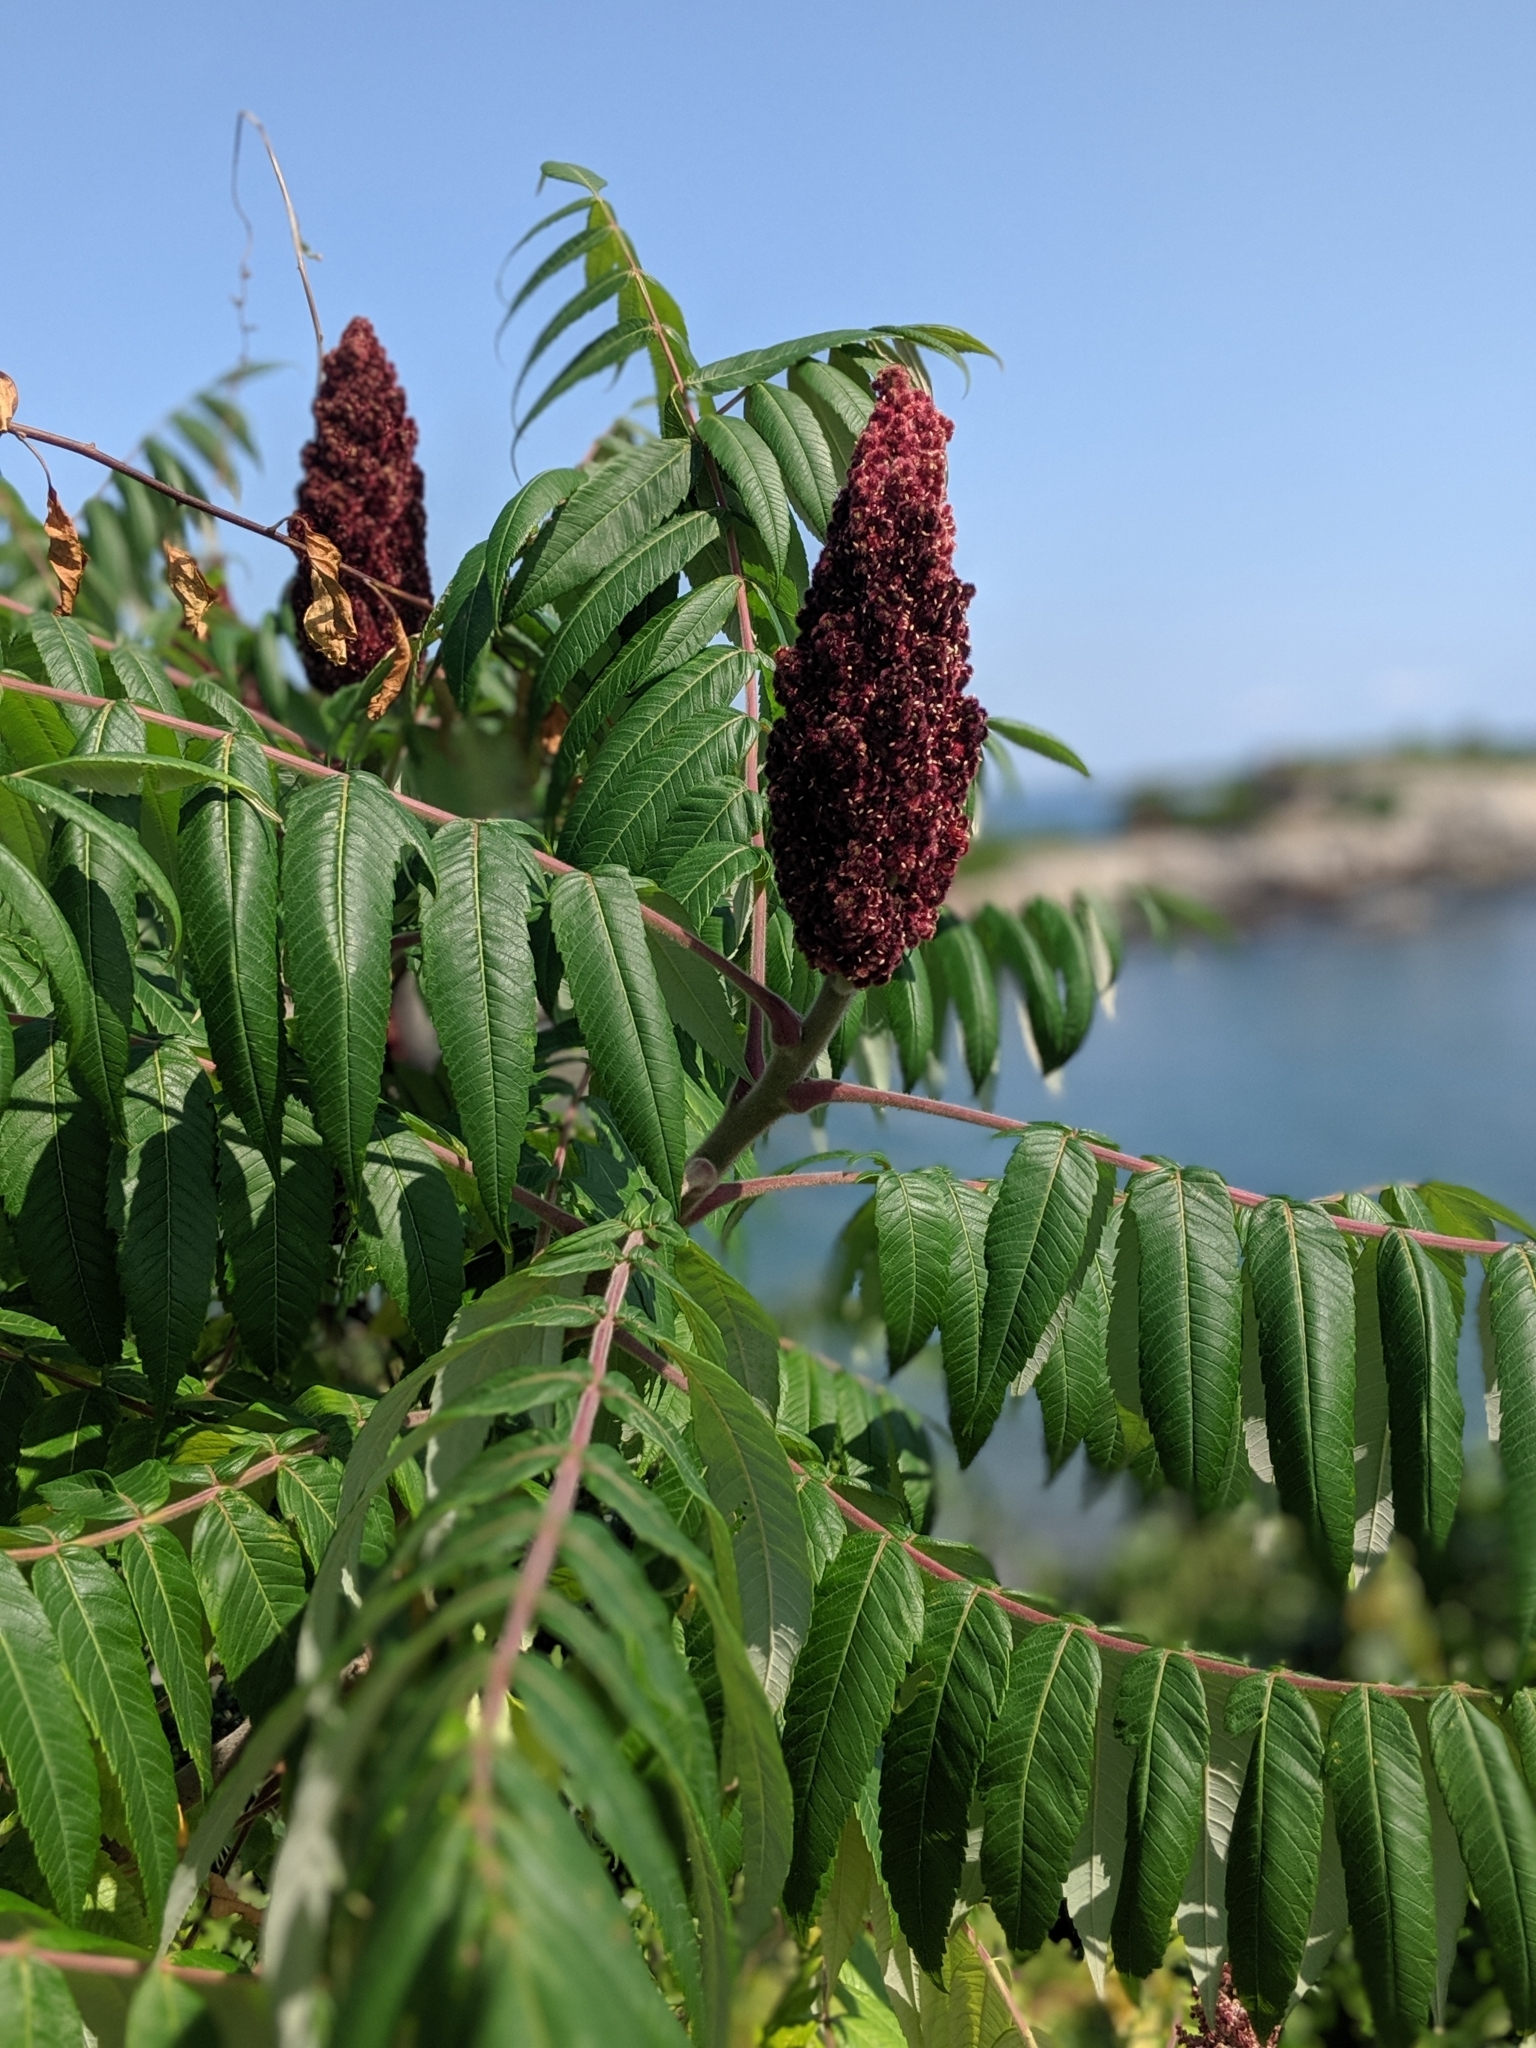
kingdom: Plantae
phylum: Tracheophyta
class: Magnoliopsida
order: Sapindales
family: Anacardiaceae
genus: Rhus
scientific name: Rhus typhina
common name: Staghorn sumac
